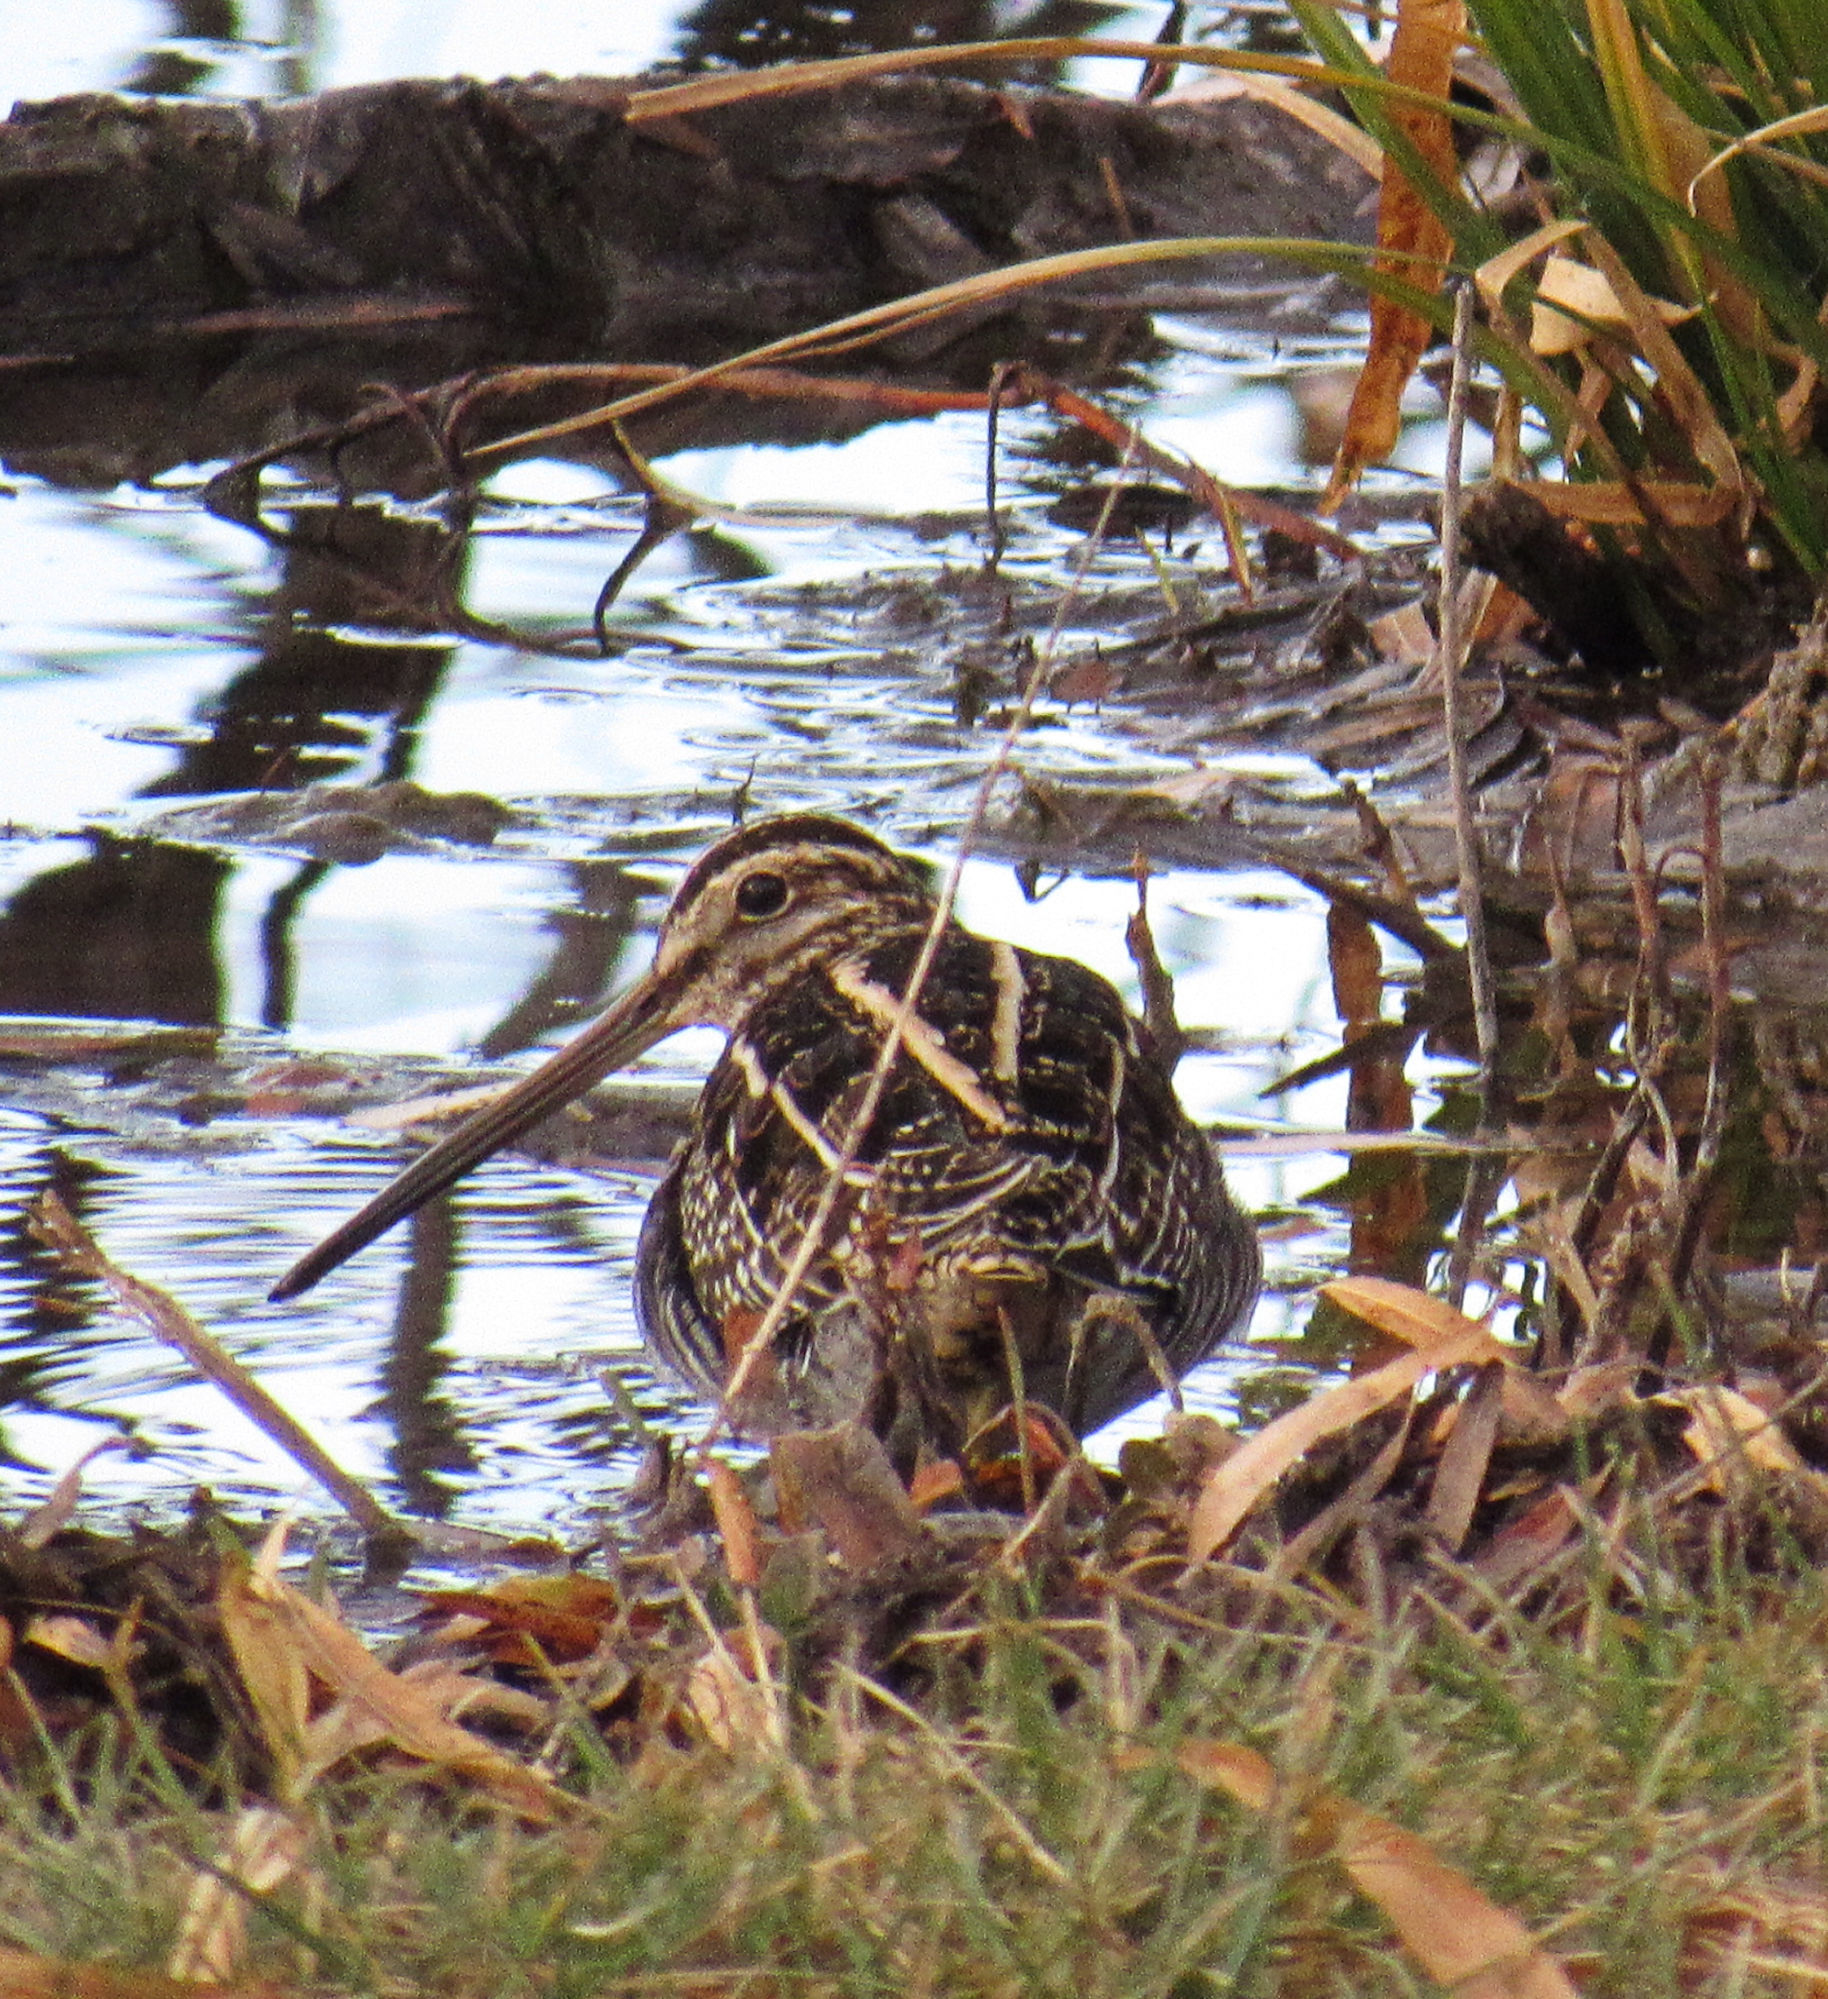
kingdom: Animalia
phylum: Chordata
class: Aves
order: Charadriiformes
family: Scolopacidae
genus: Gallinago
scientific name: Gallinago delicata
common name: Wilson's snipe
